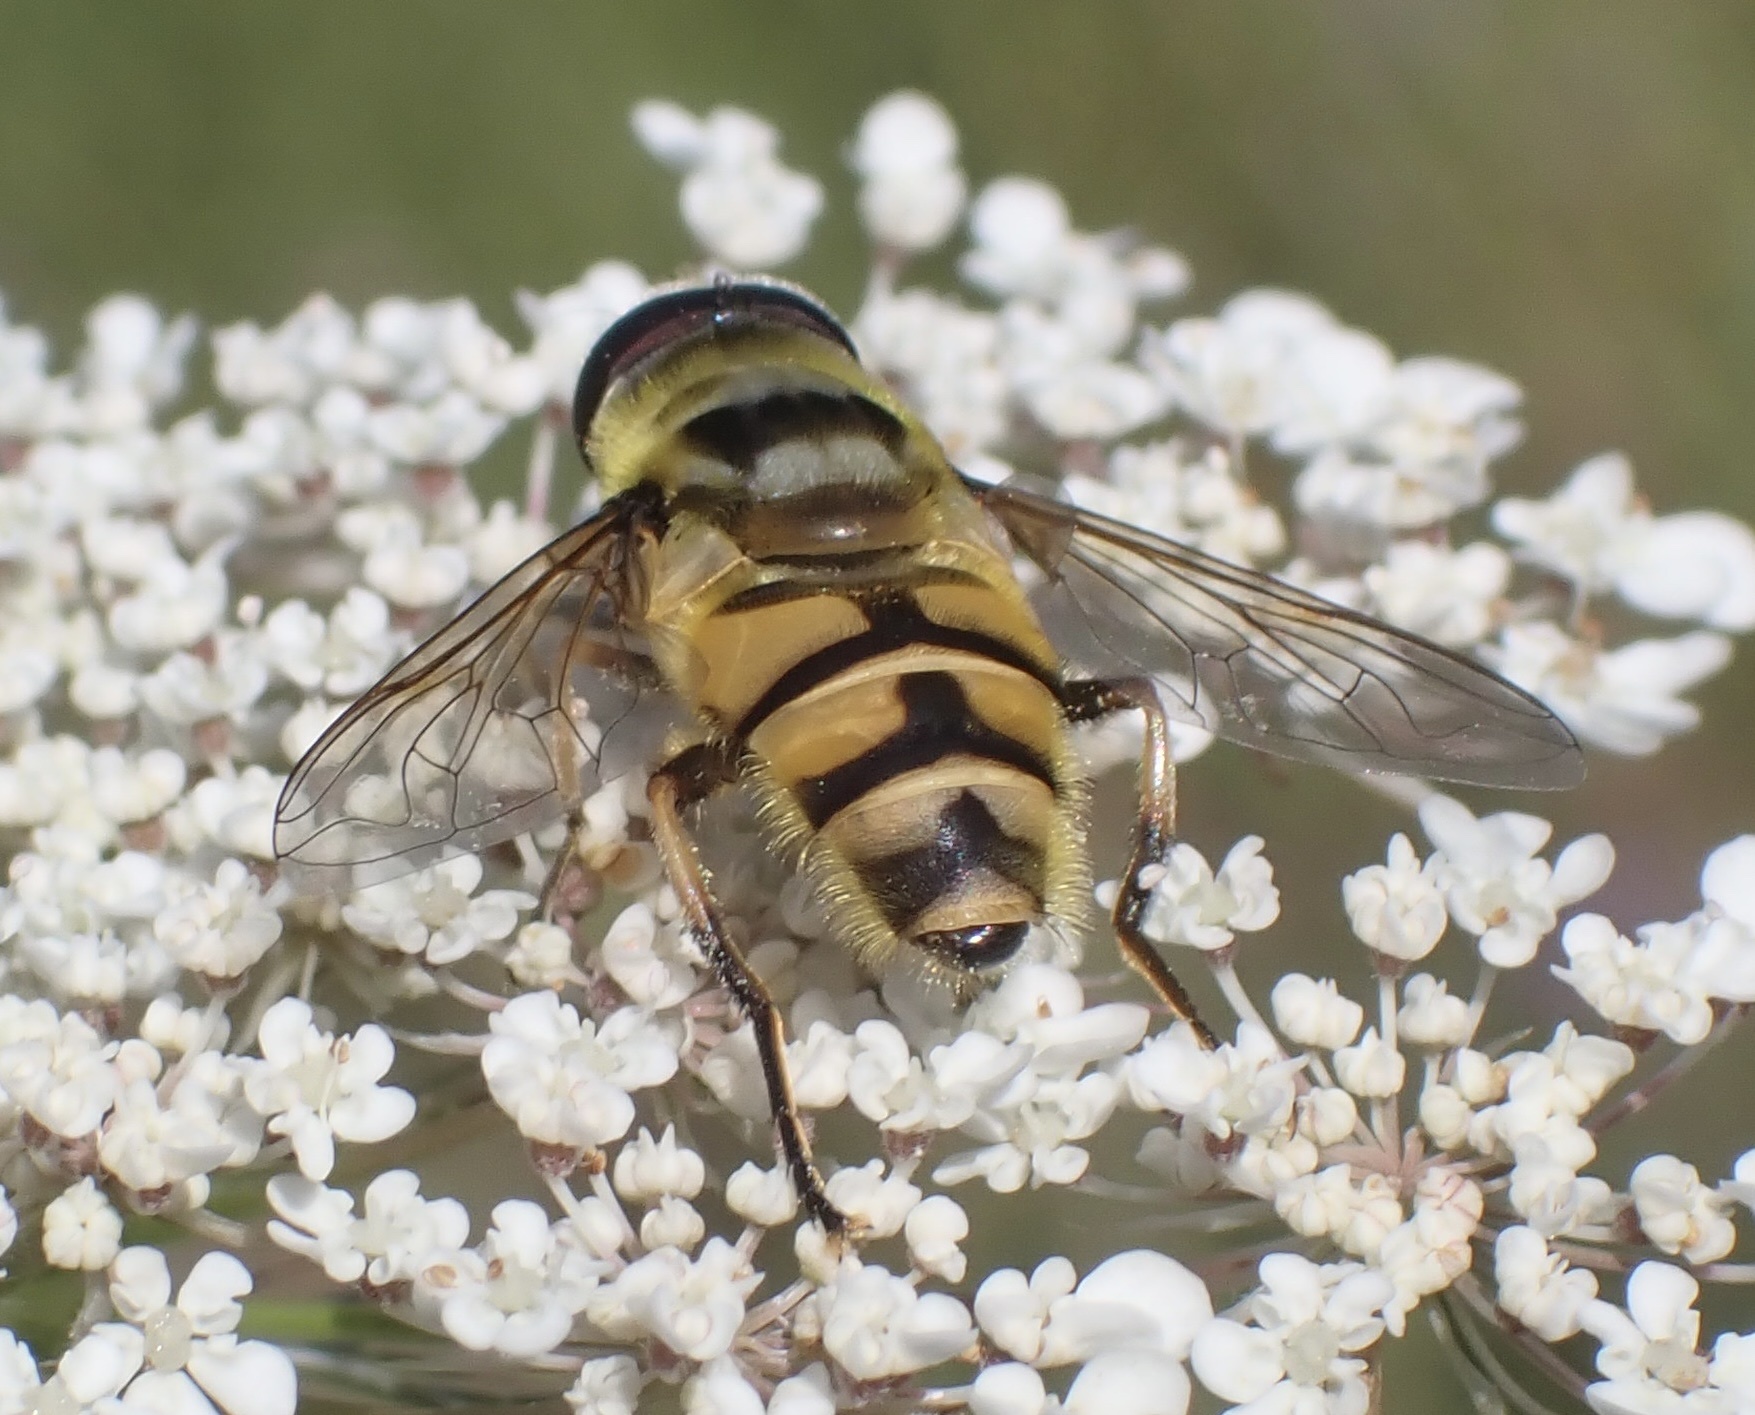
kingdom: Animalia
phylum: Arthropoda
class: Insecta
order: Diptera
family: Syrphidae
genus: Myathropa
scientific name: Myathropa florea
